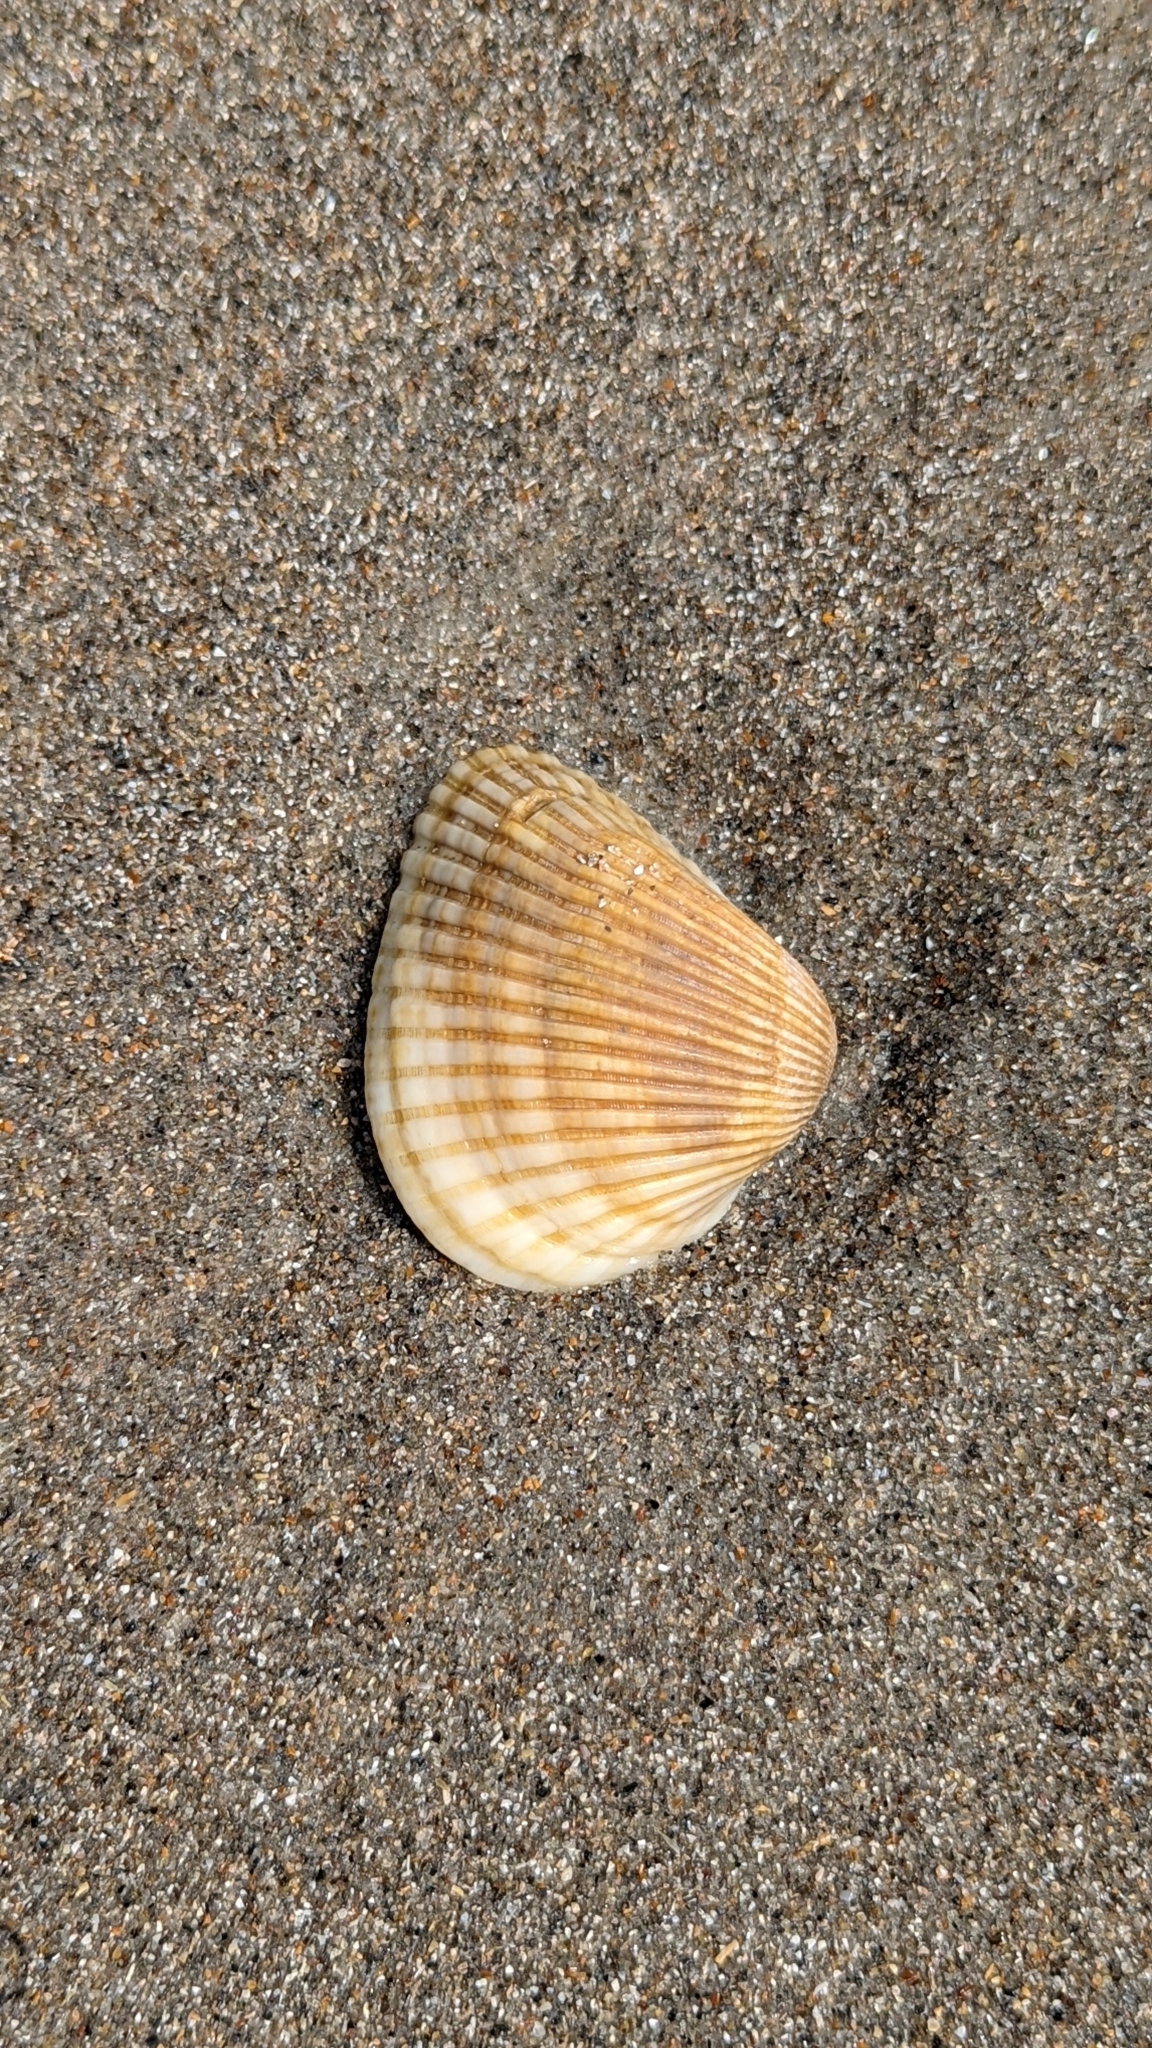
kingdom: Animalia
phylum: Mollusca
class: Bivalvia
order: Arcida
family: Noetiidae
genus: Noetia
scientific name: Noetia ponderosa
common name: Ponderous ark
